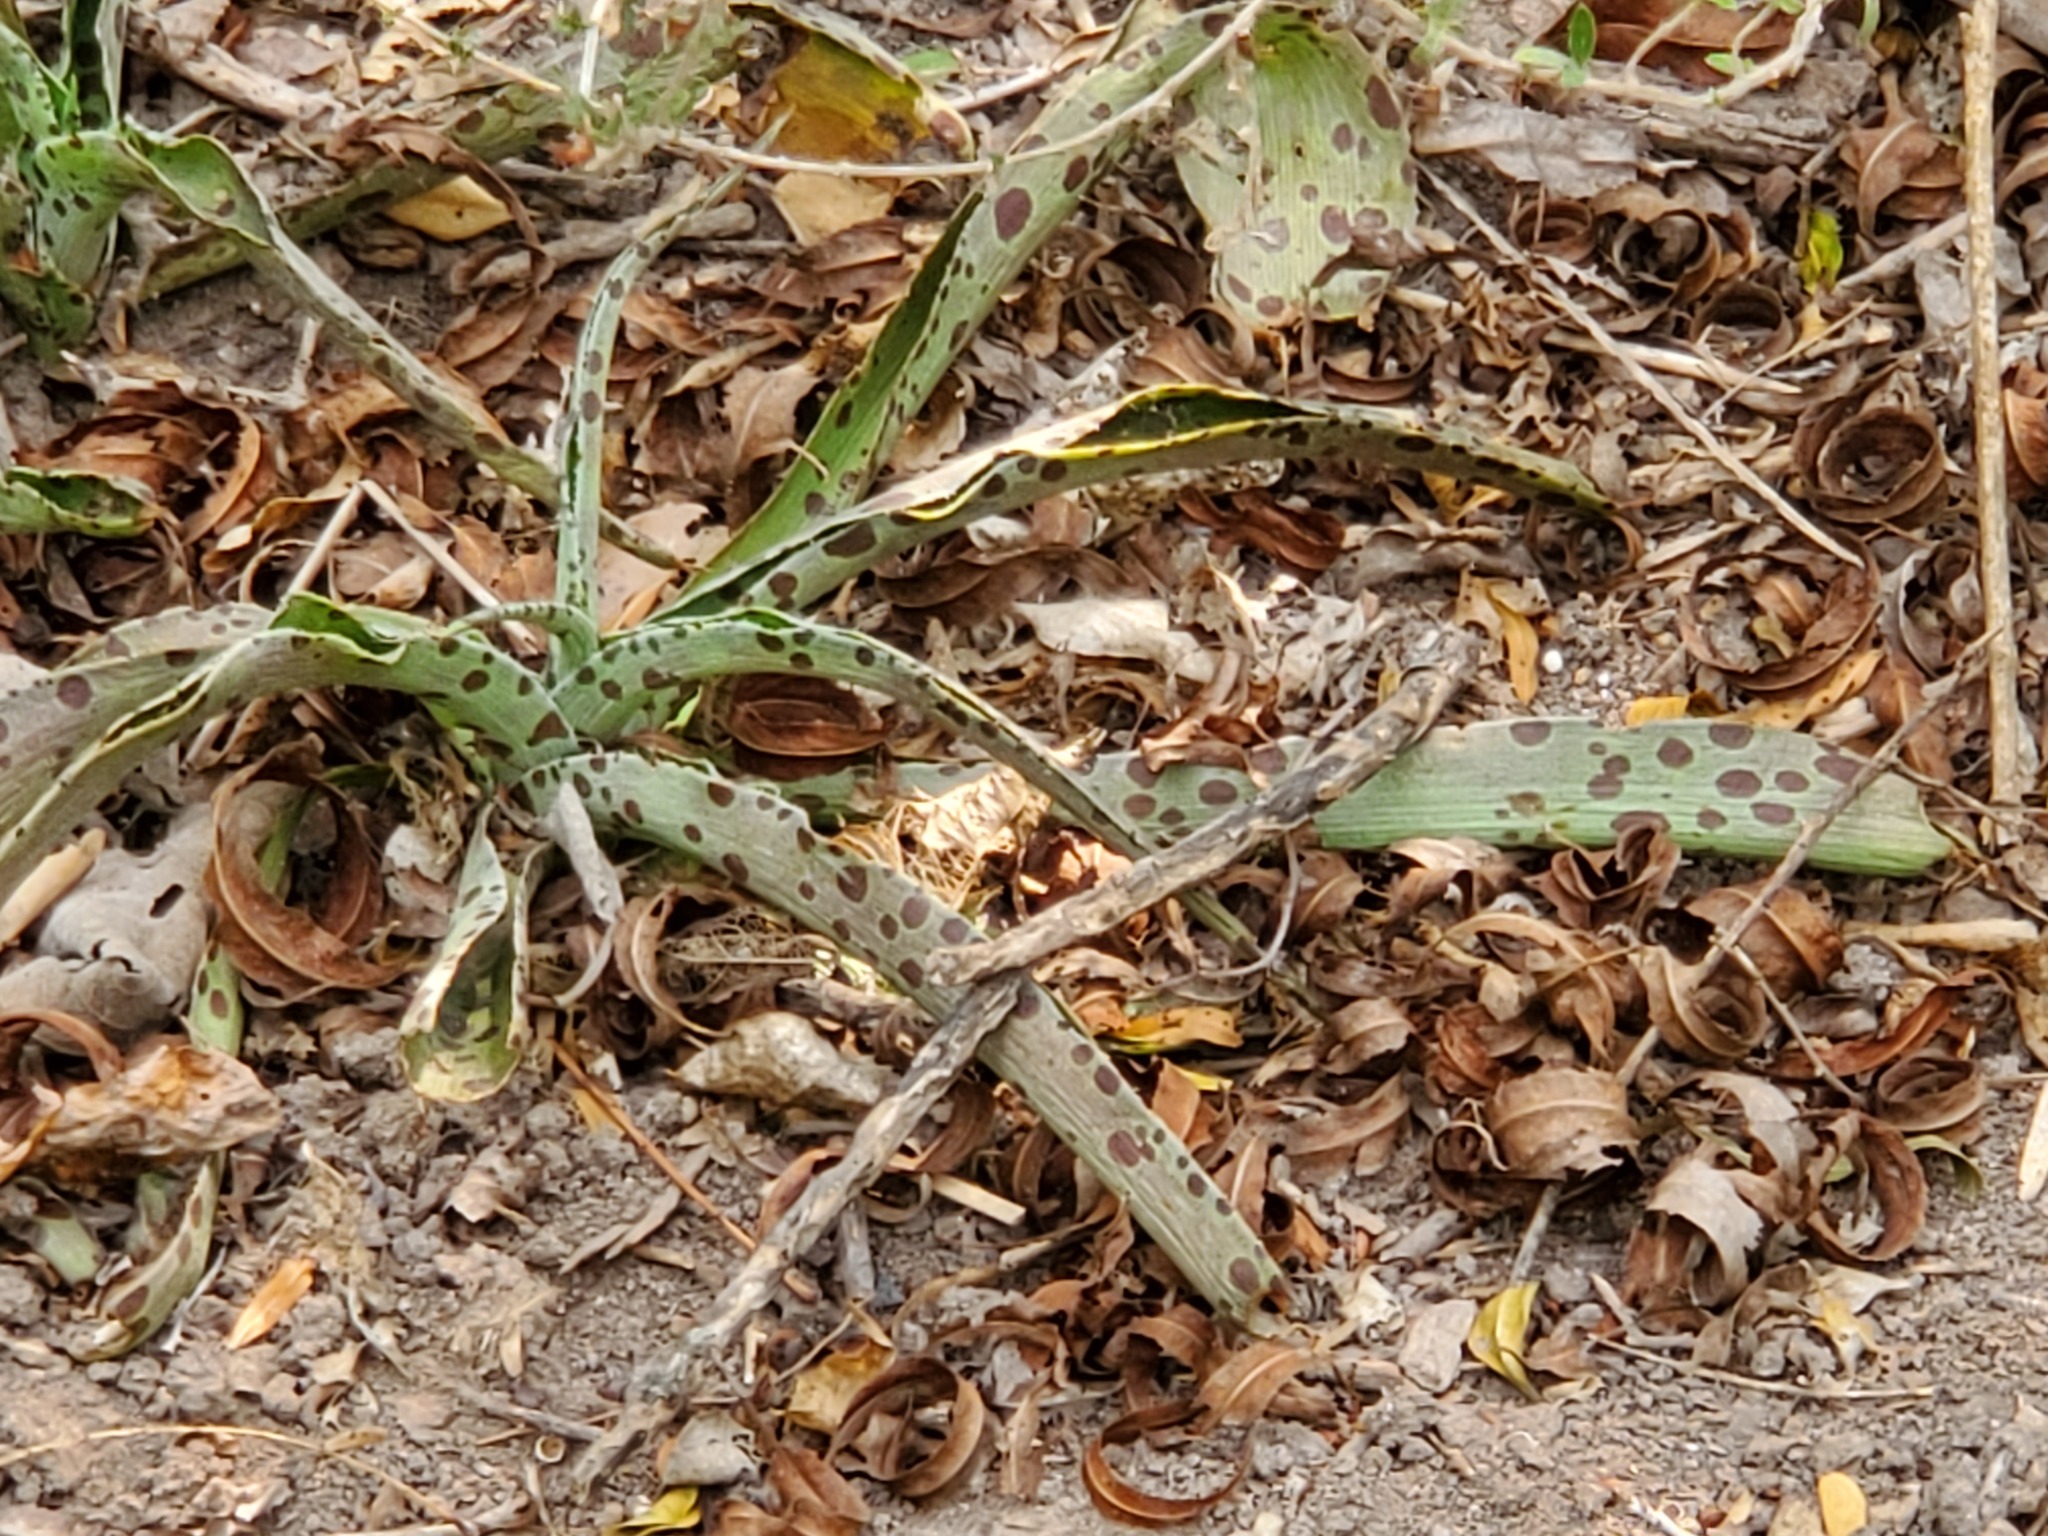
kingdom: Plantae
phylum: Tracheophyta
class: Liliopsida
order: Asparagales
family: Asparagaceae
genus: Agave
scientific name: Agave variegata
